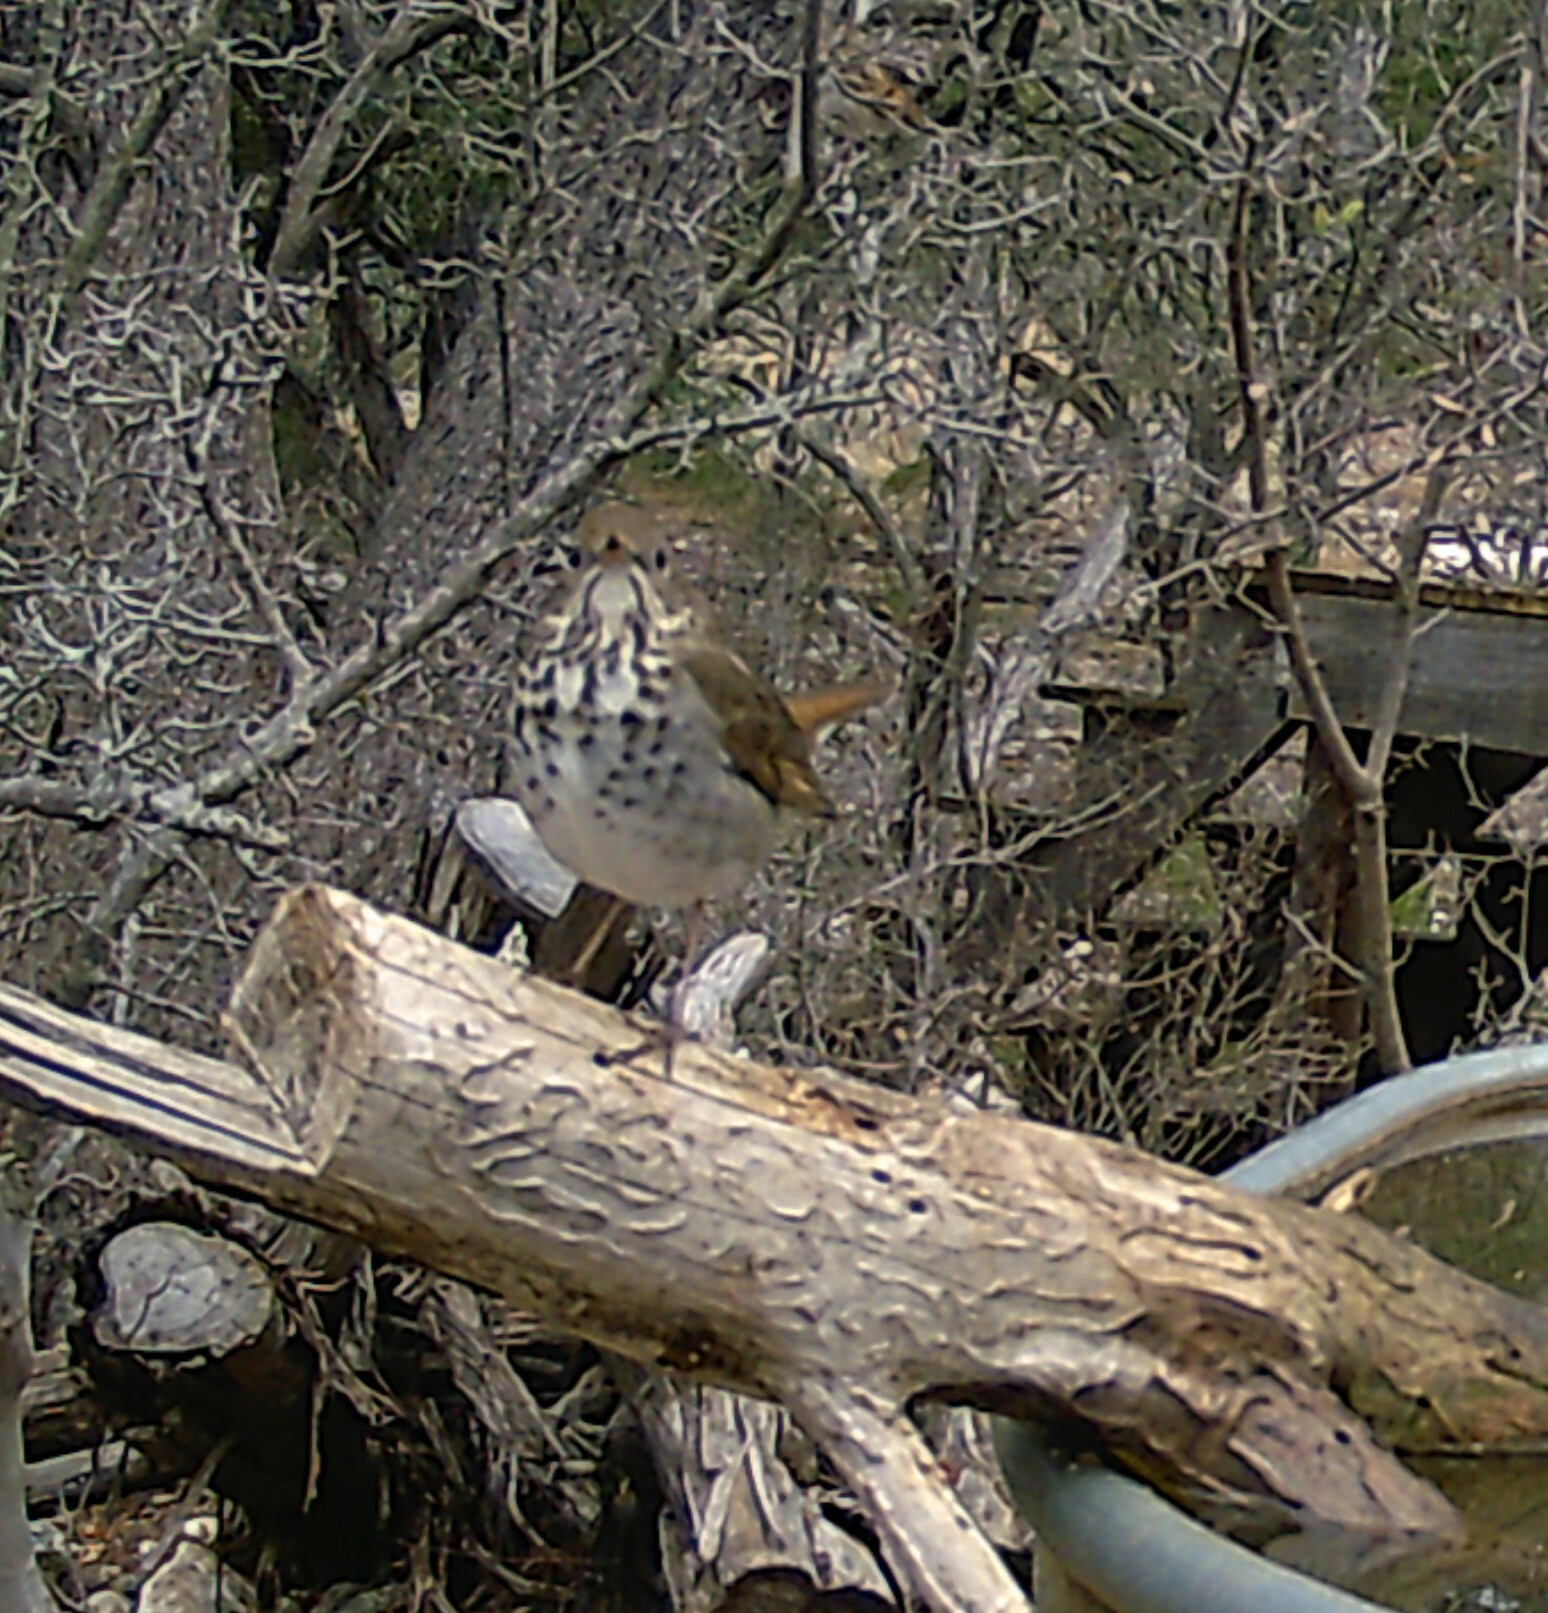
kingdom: Animalia
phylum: Chordata
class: Aves
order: Passeriformes
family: Turdidae
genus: Catharus
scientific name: Catharus guttatus
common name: Hermit thrush
